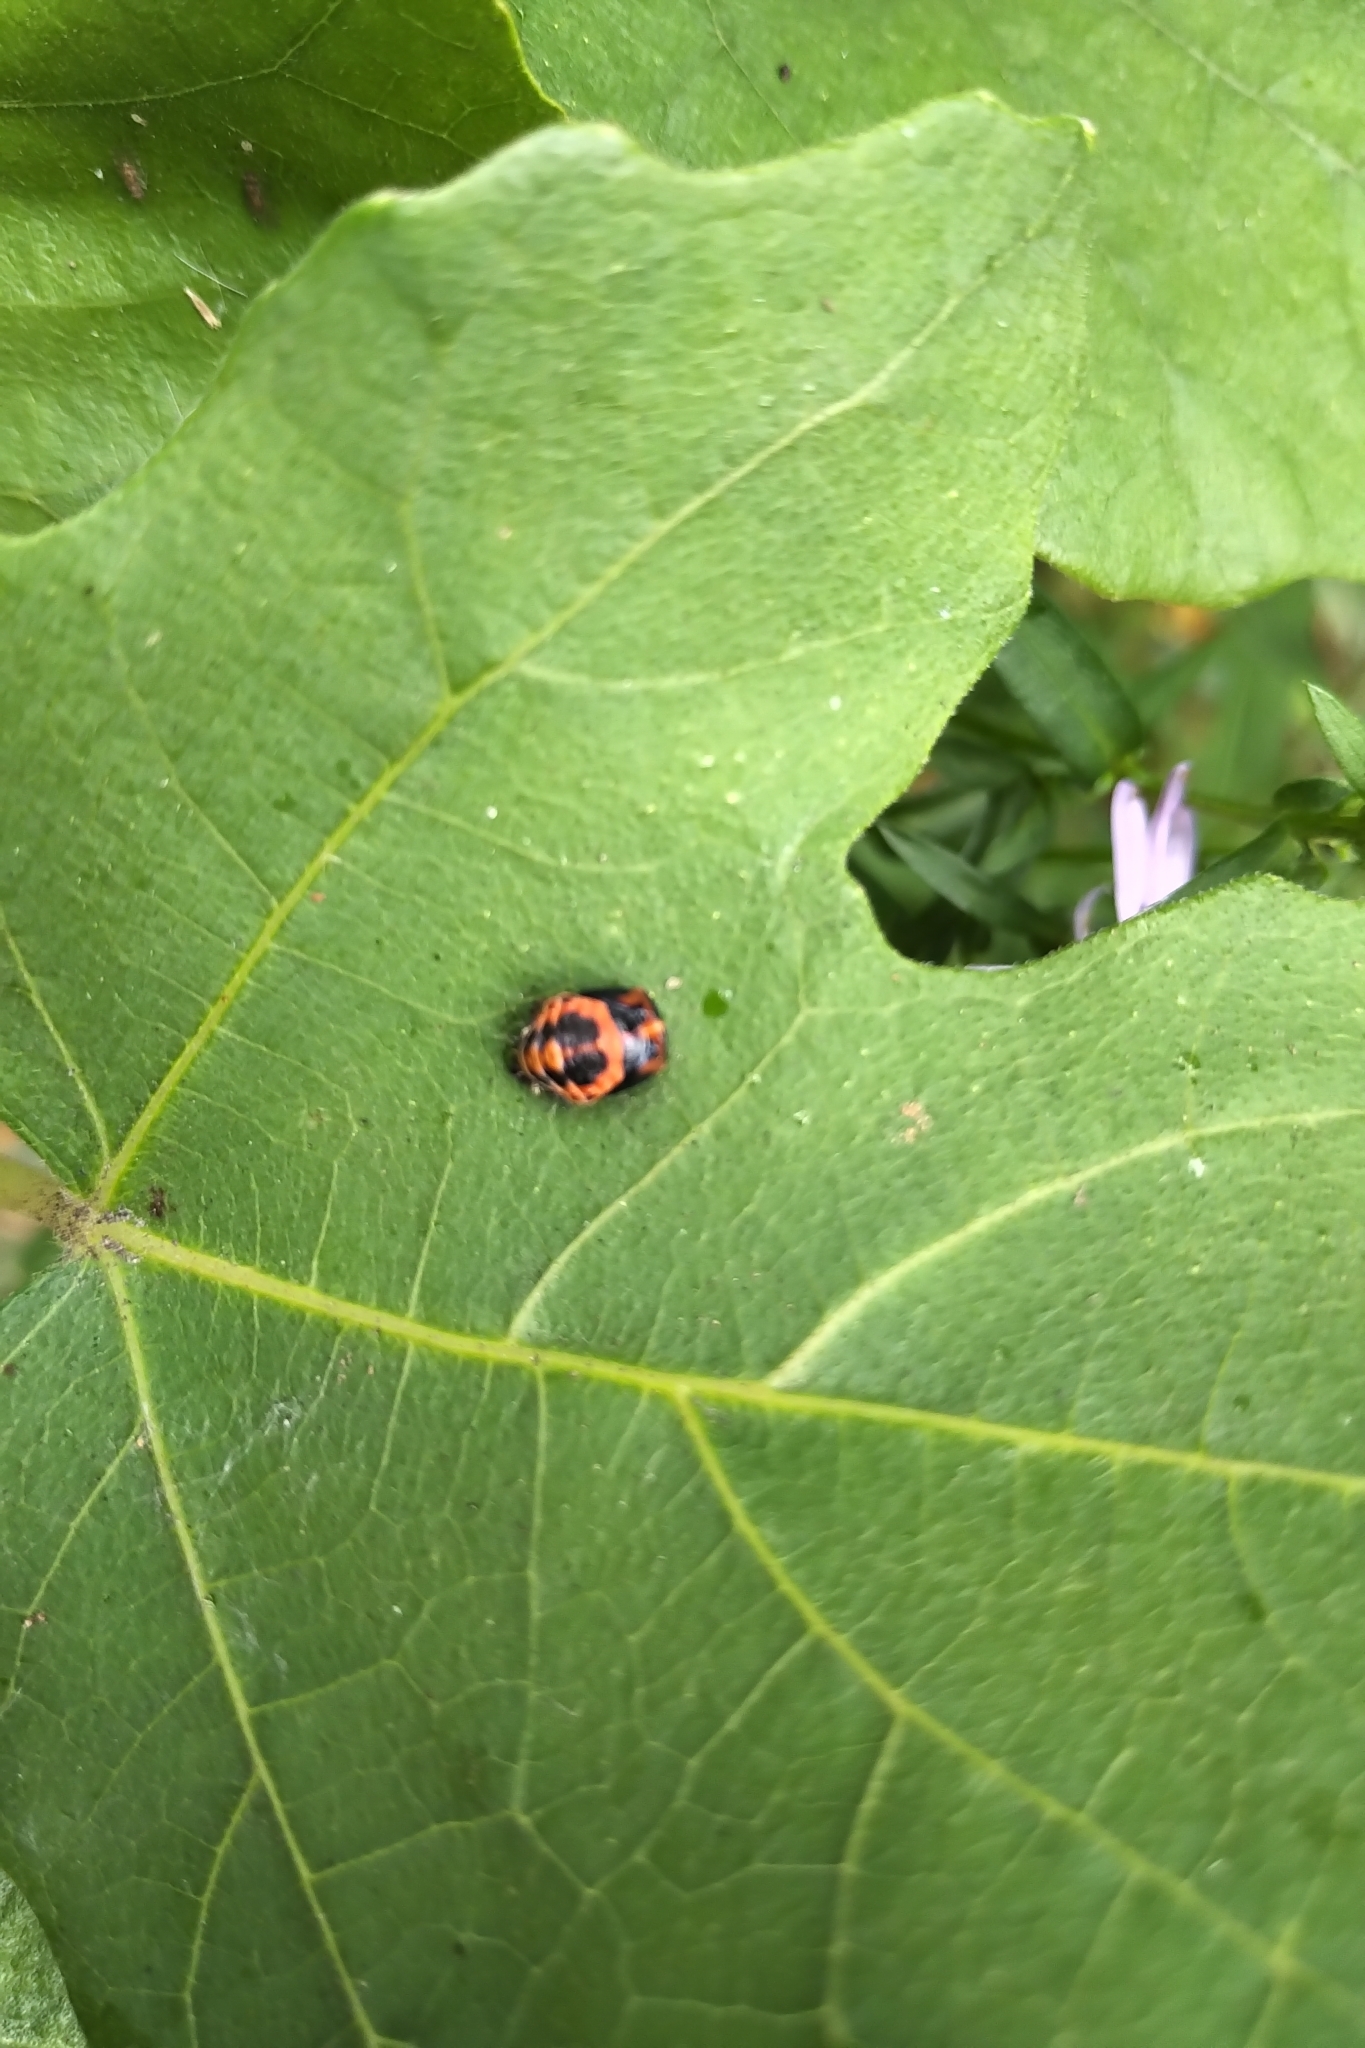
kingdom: Animalia
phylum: Arthropoda
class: Insecta
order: Coleoptera
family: Coccinellidae
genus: Harmonia
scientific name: Harmonia axyridis
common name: Harlequin ladybird
